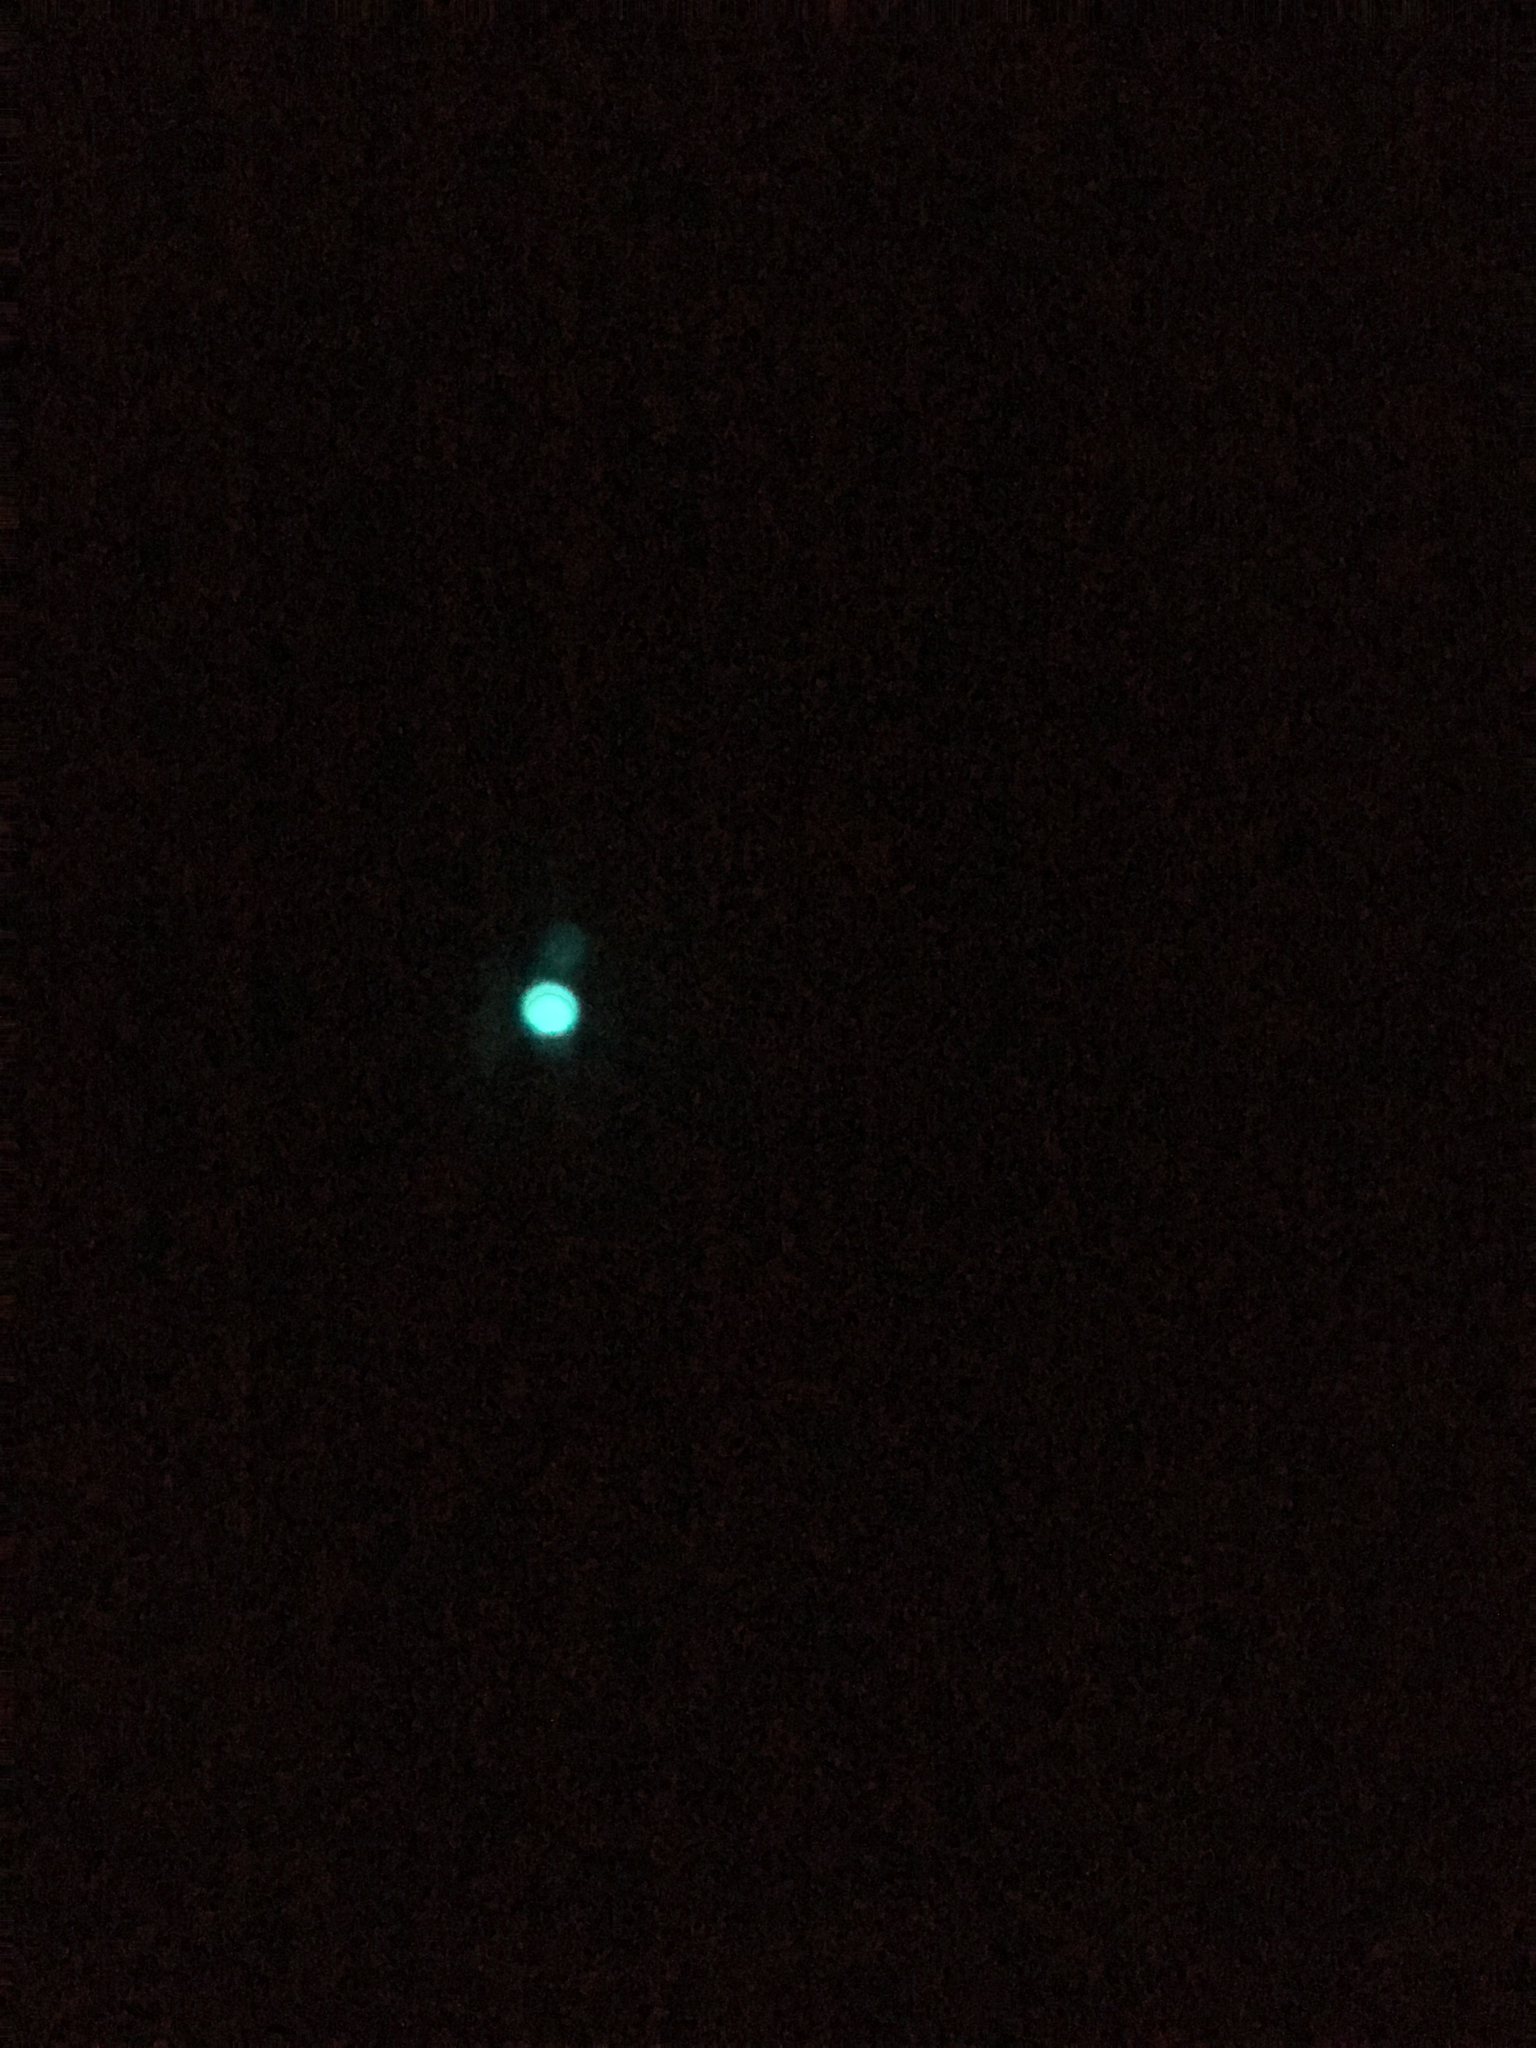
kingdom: Animalia
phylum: Arthropoda
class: Insecta
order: Diptera
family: Keroplatidae
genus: Arachnocampa
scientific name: Arachnocampa luminosa
